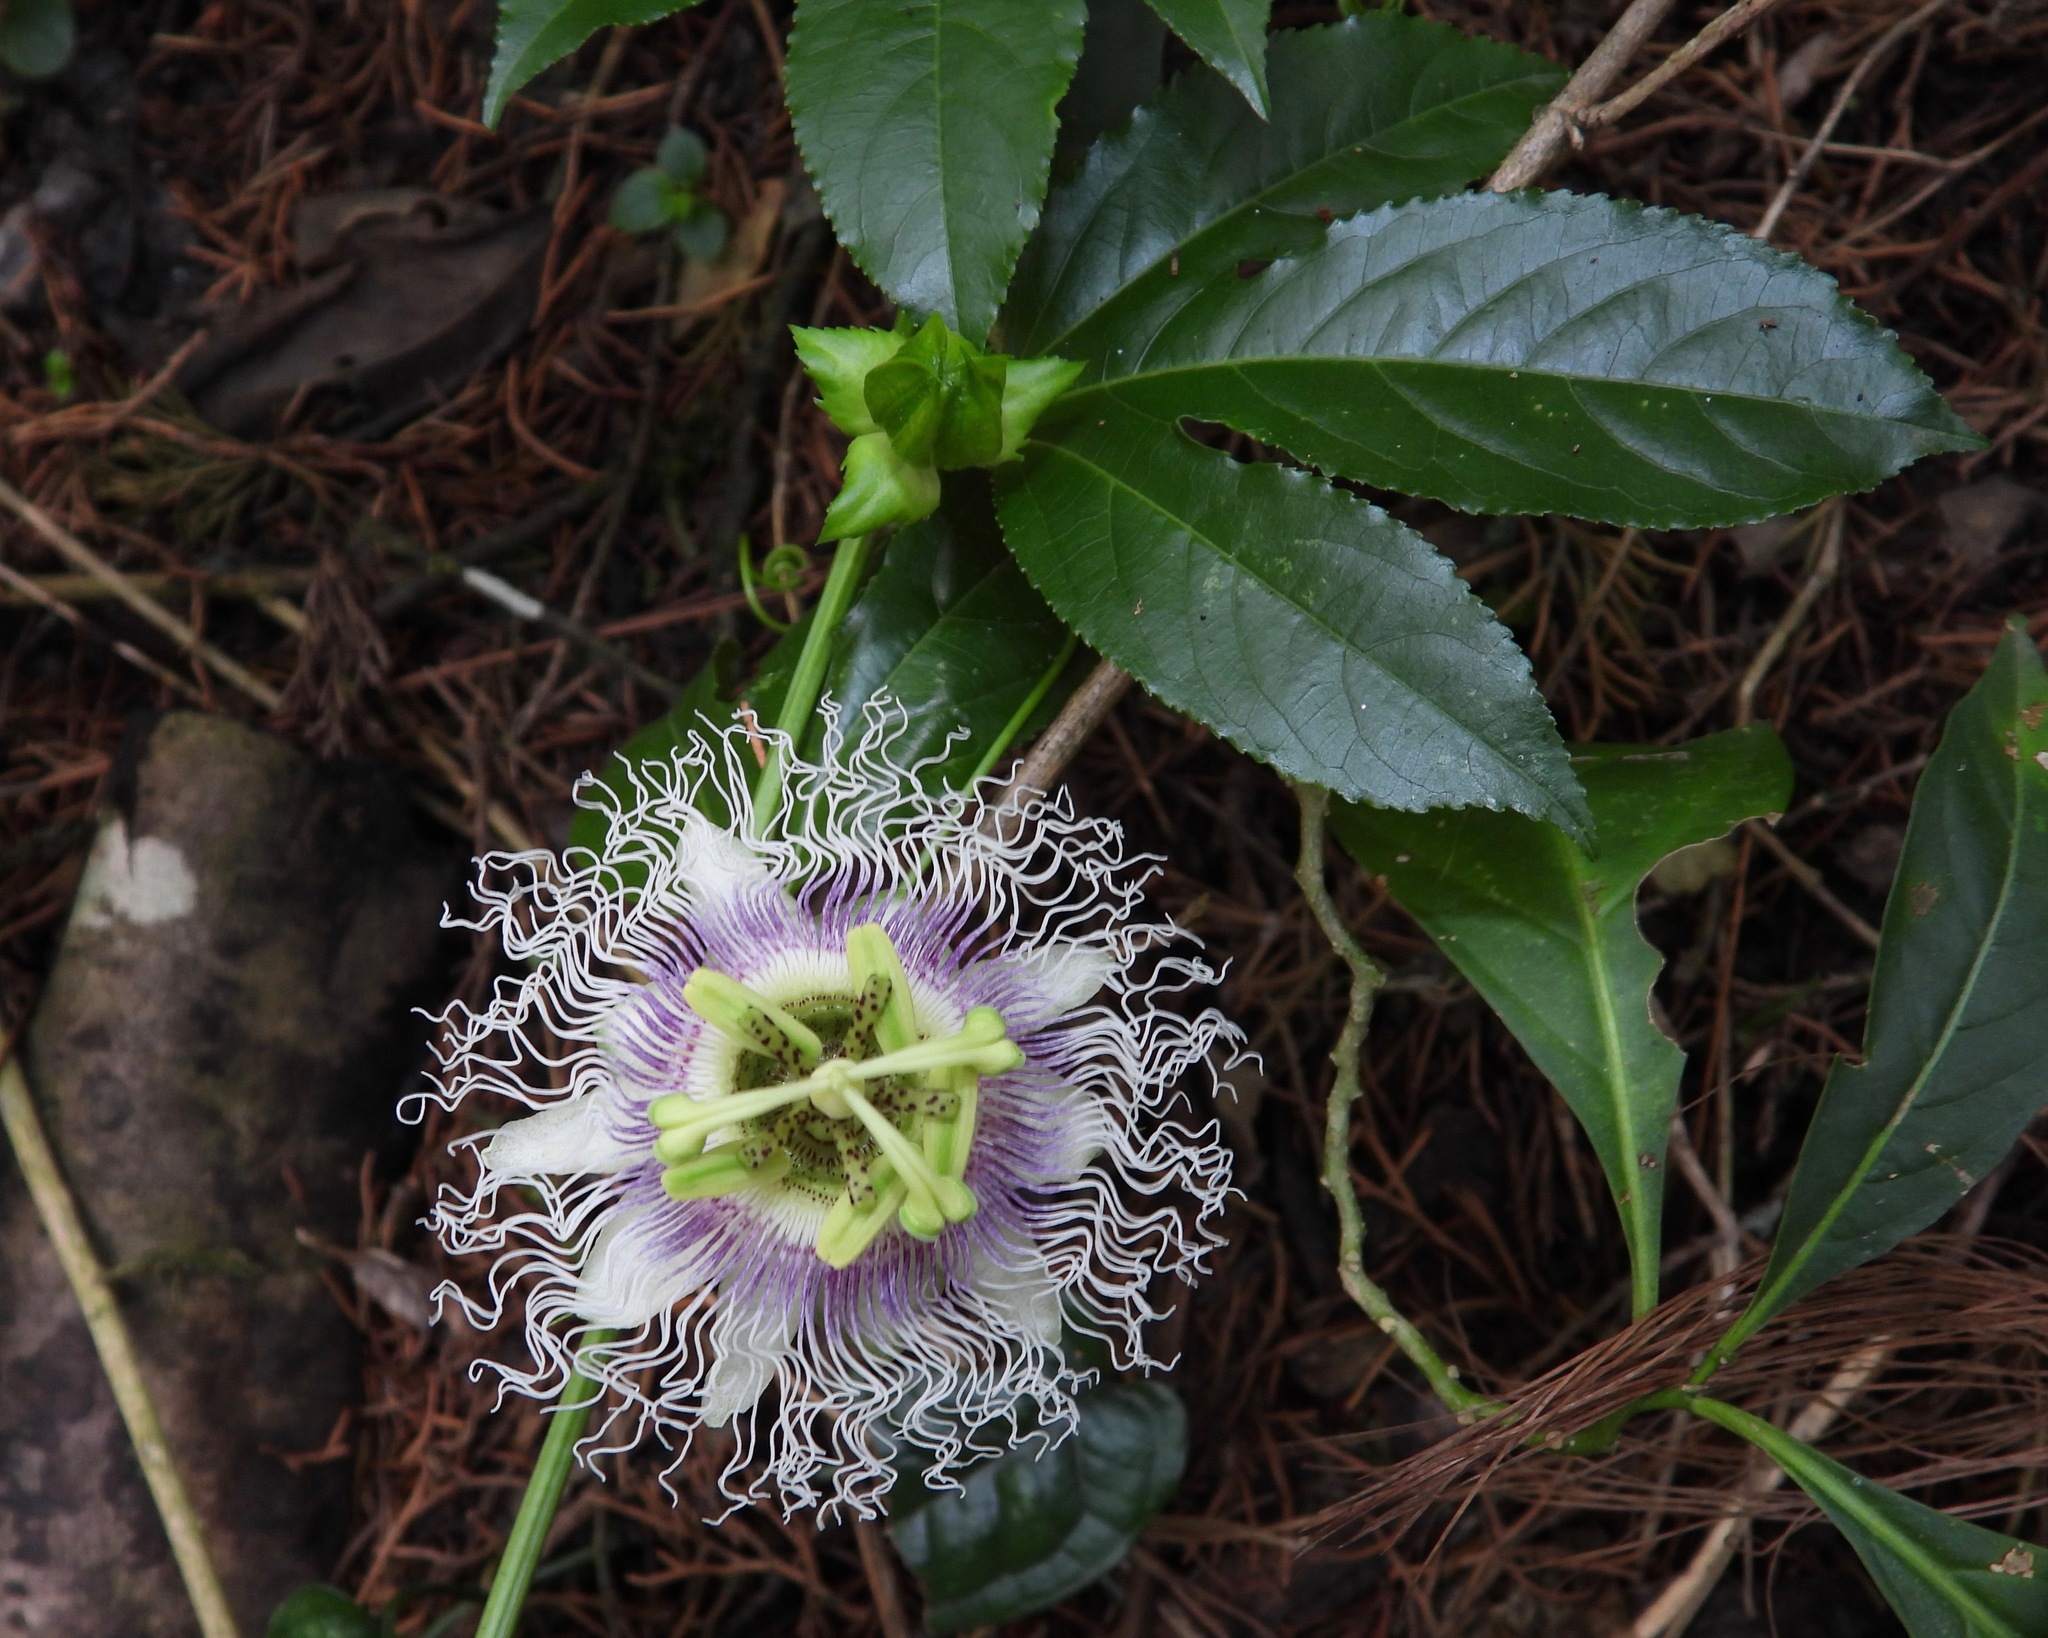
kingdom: Plantae
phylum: Tracheophyta
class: Magnoliopsida
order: Malpighiales
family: Passifloraceae
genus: Passiflora
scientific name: Passiflora edulis
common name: Purple granadilla
